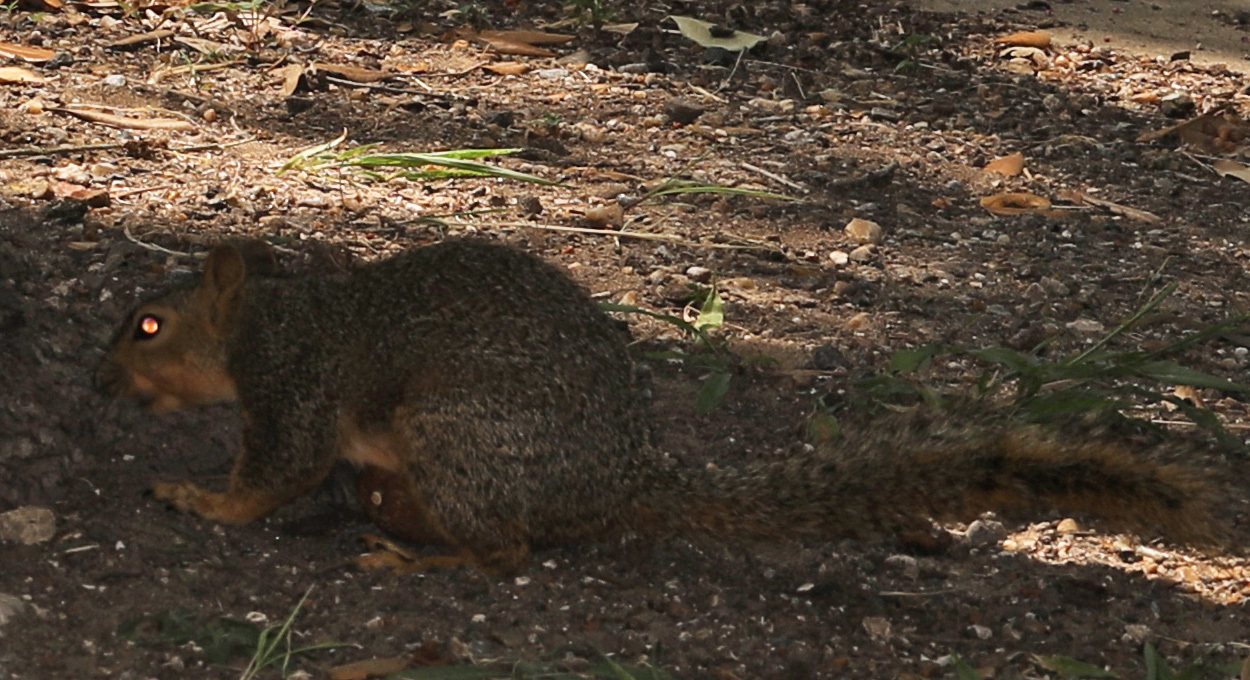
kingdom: Animalia
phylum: Chordata
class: Mammalia
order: Rodentia
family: Sciuridae
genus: Sciurus
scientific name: Sciurus niger
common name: Fox squirrel
